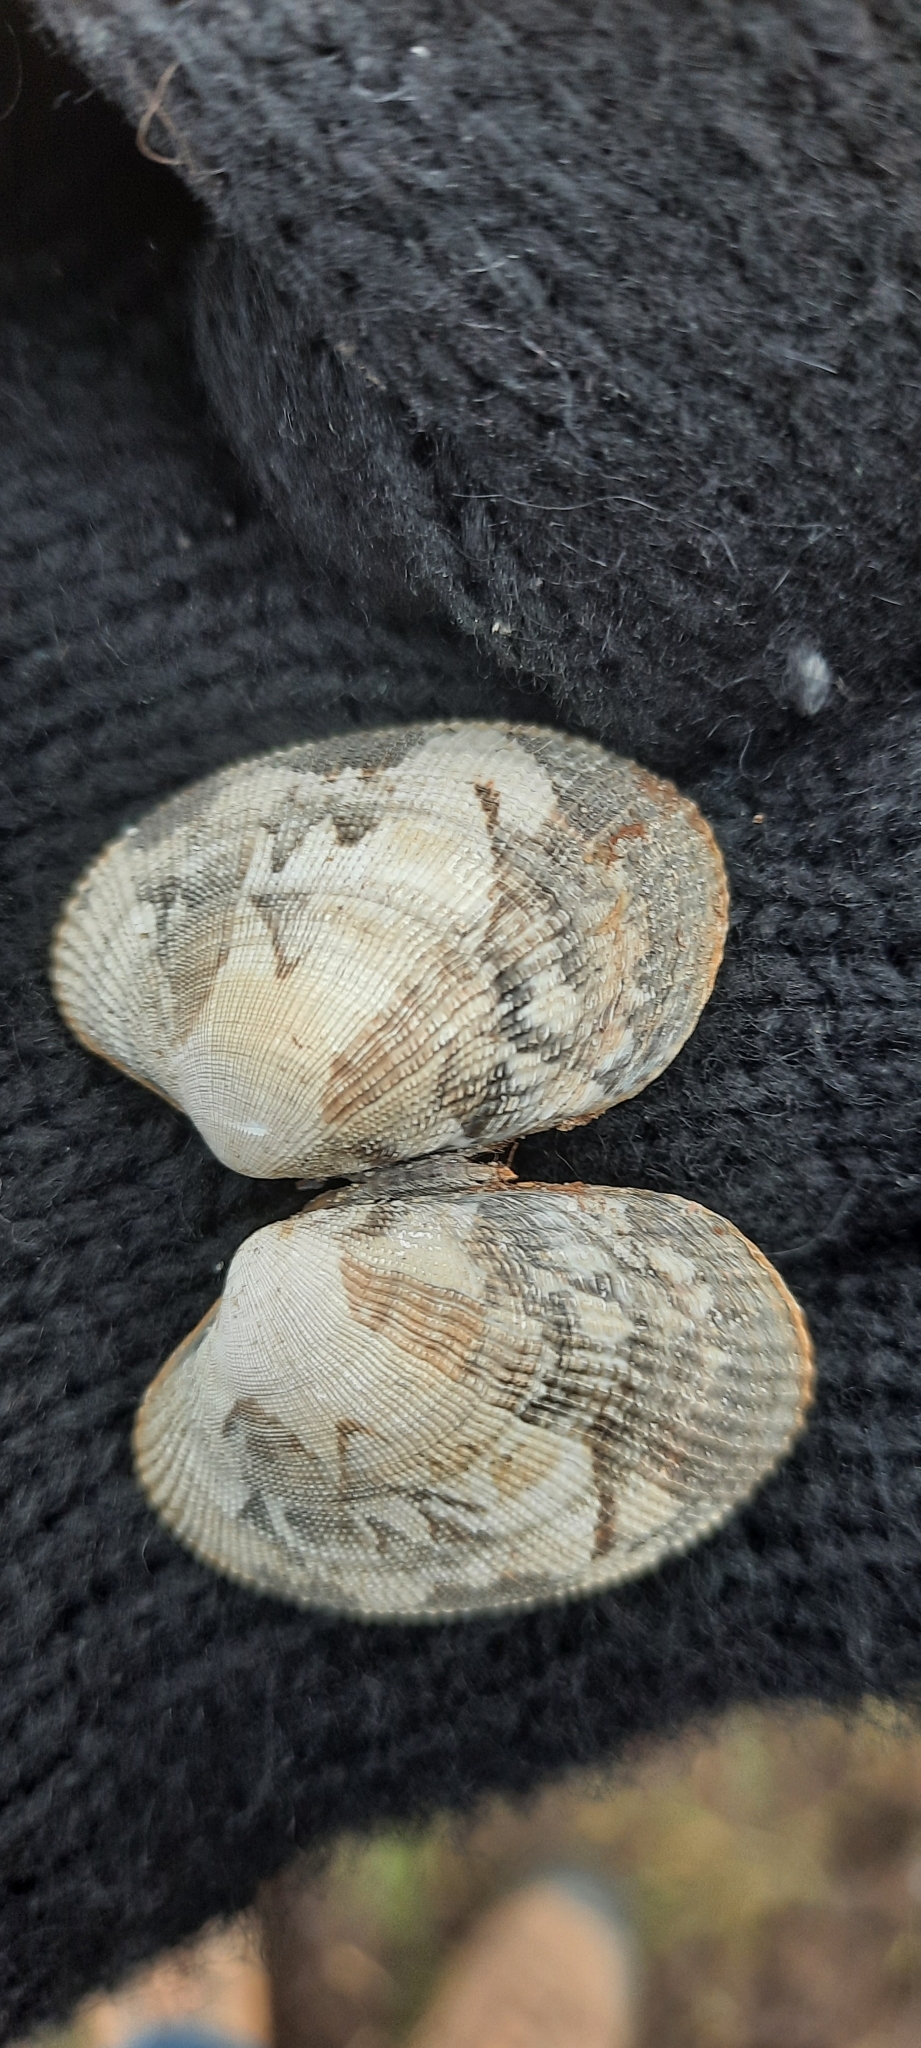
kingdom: Animalia
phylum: Mollusca
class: Bivalvia
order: Venerida
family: Veneridae
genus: Ruditapes
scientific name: Ruditapes philippinarum
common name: Manila clam
